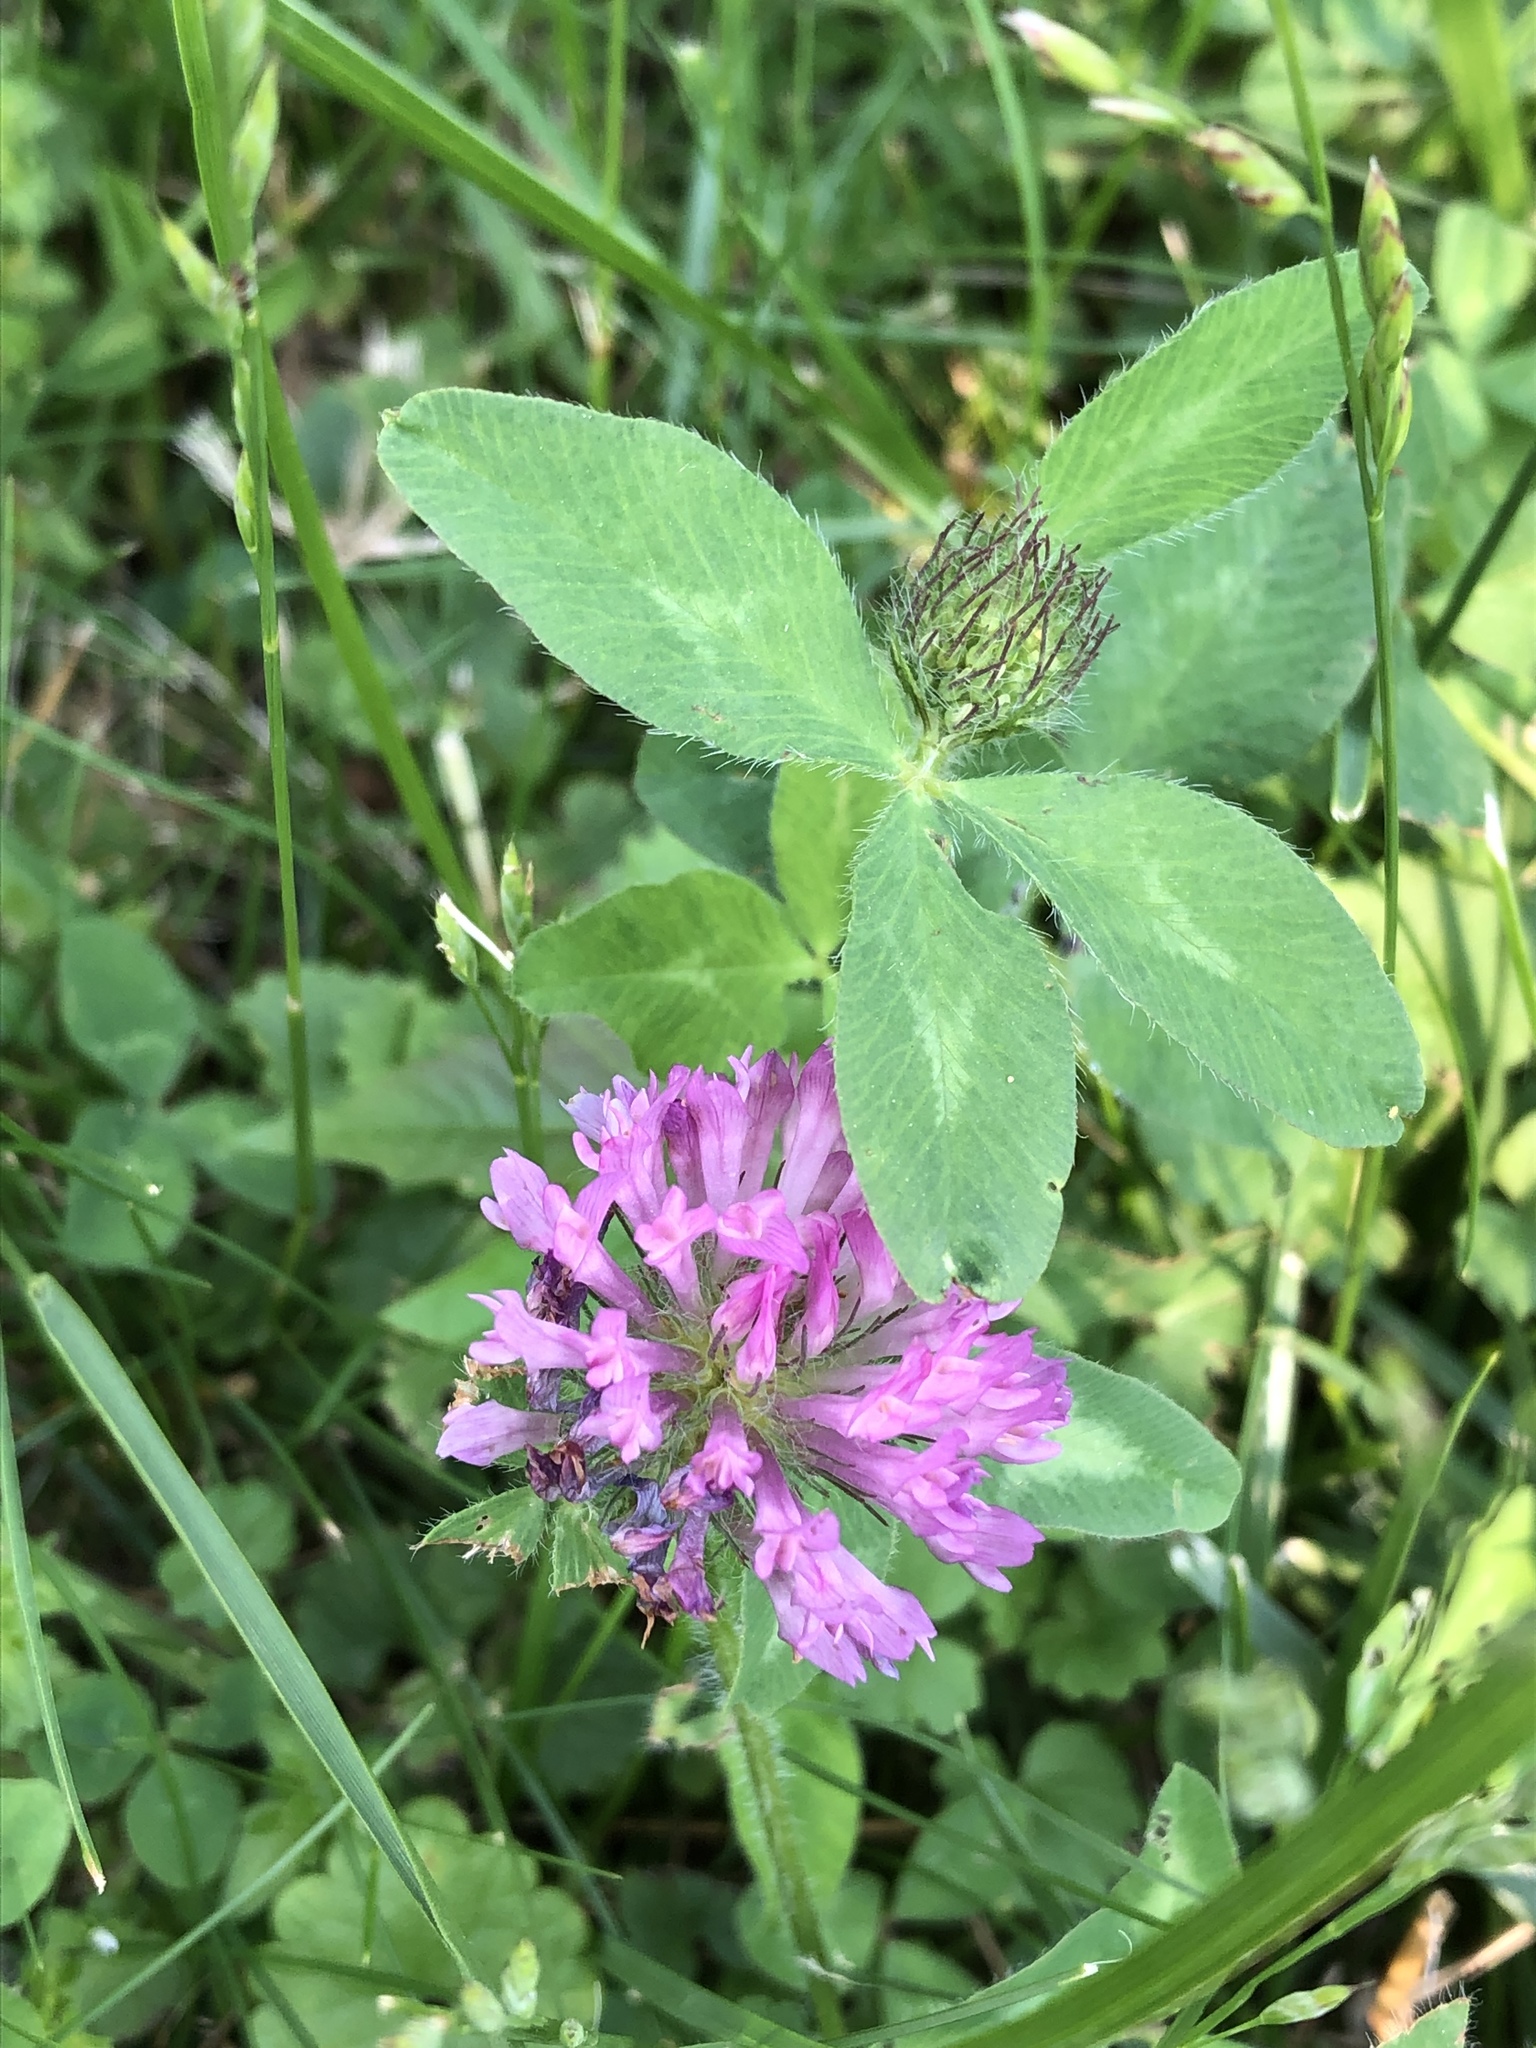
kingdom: Plantae
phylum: Tracheophyta
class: Magnoliopsida
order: Fabales
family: Fabaceae
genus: Trifolium
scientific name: Trifolium pratense
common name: Red clover
